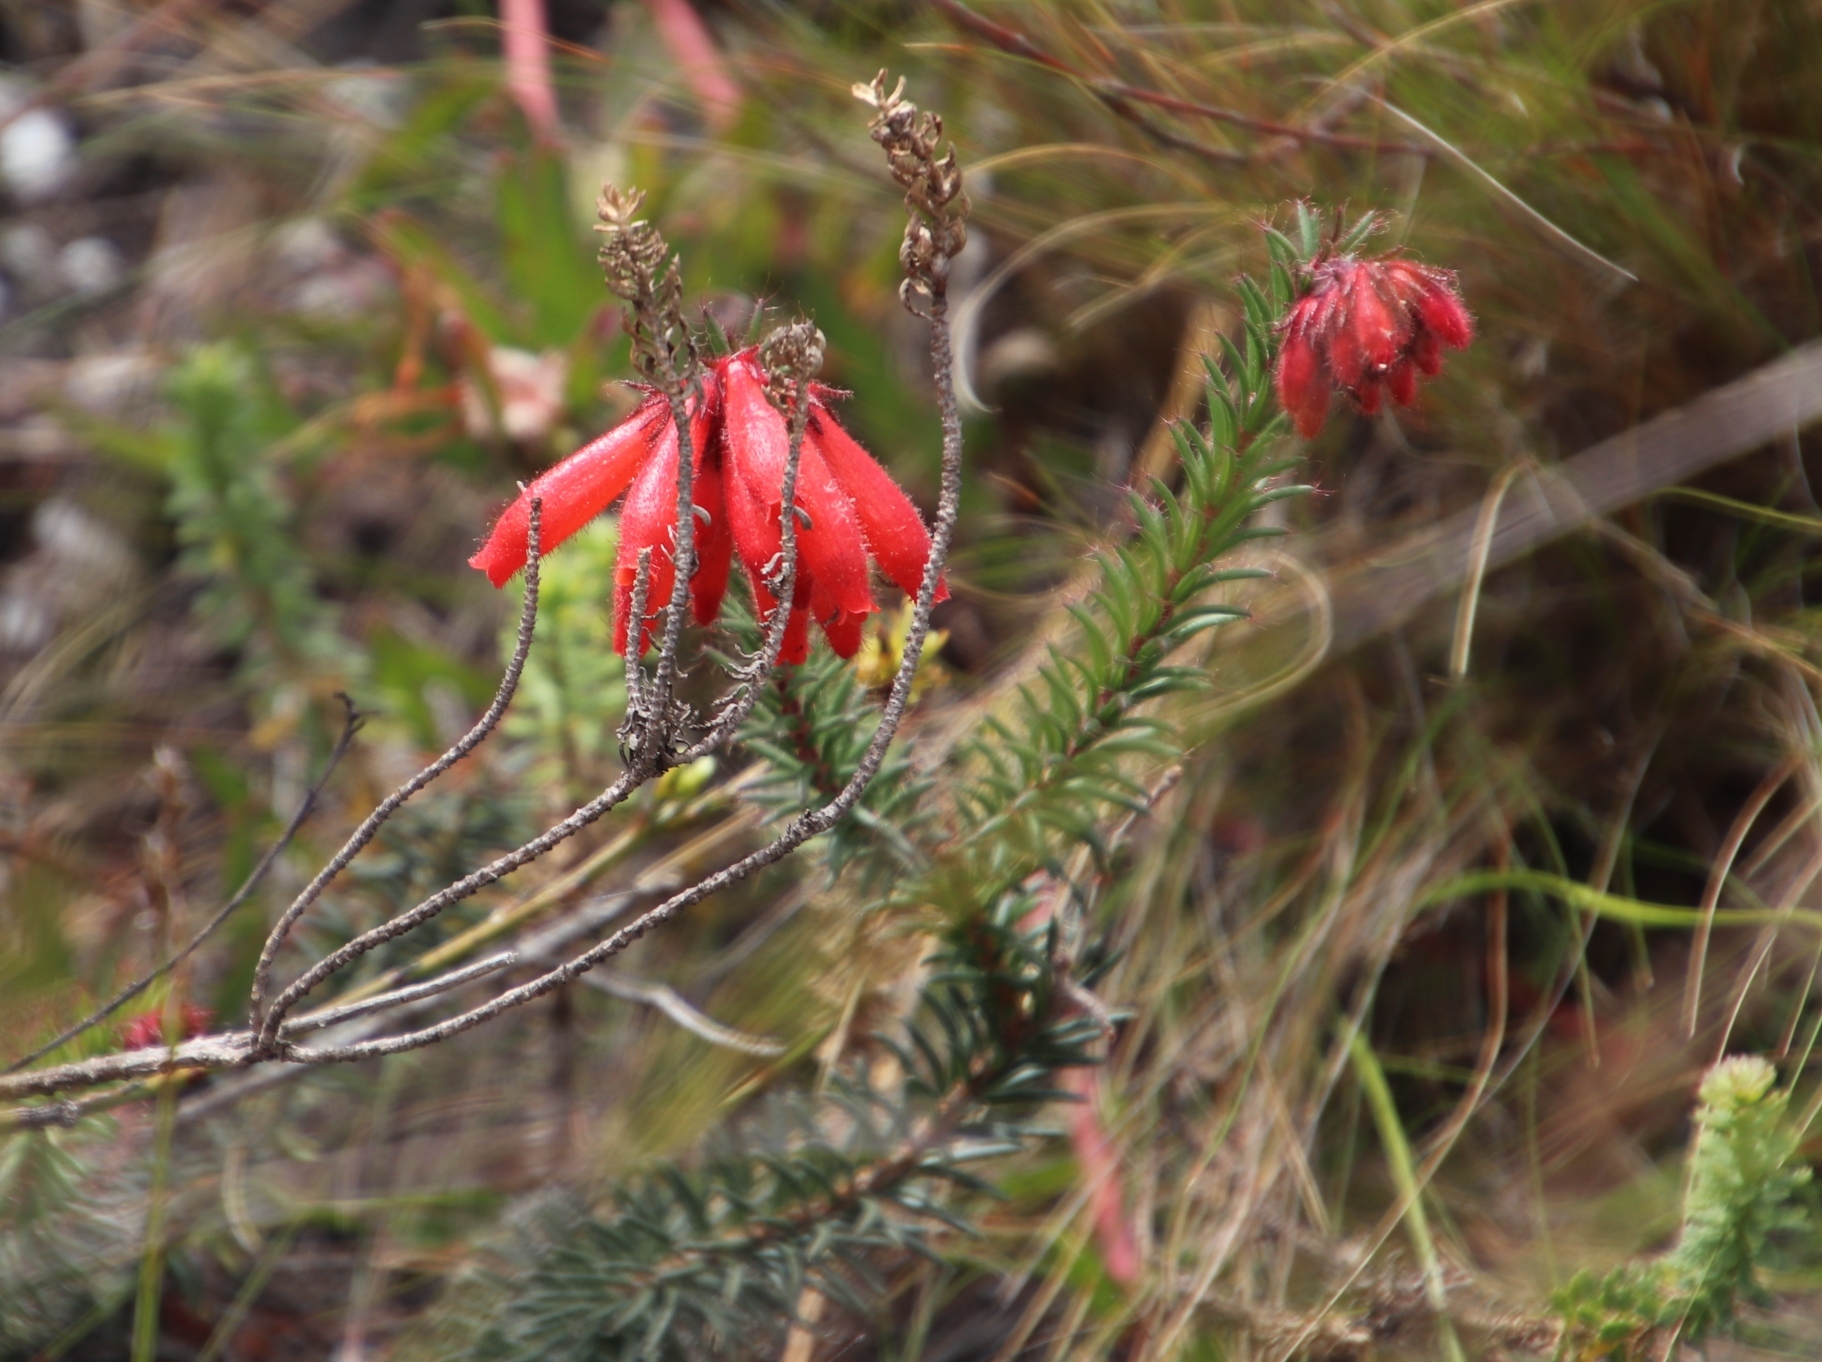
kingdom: Plantae
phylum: Tracheophyta
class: Magnoliopsida
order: Ericales
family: Ericaceae
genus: Erica
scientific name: Erica cerinthoides
